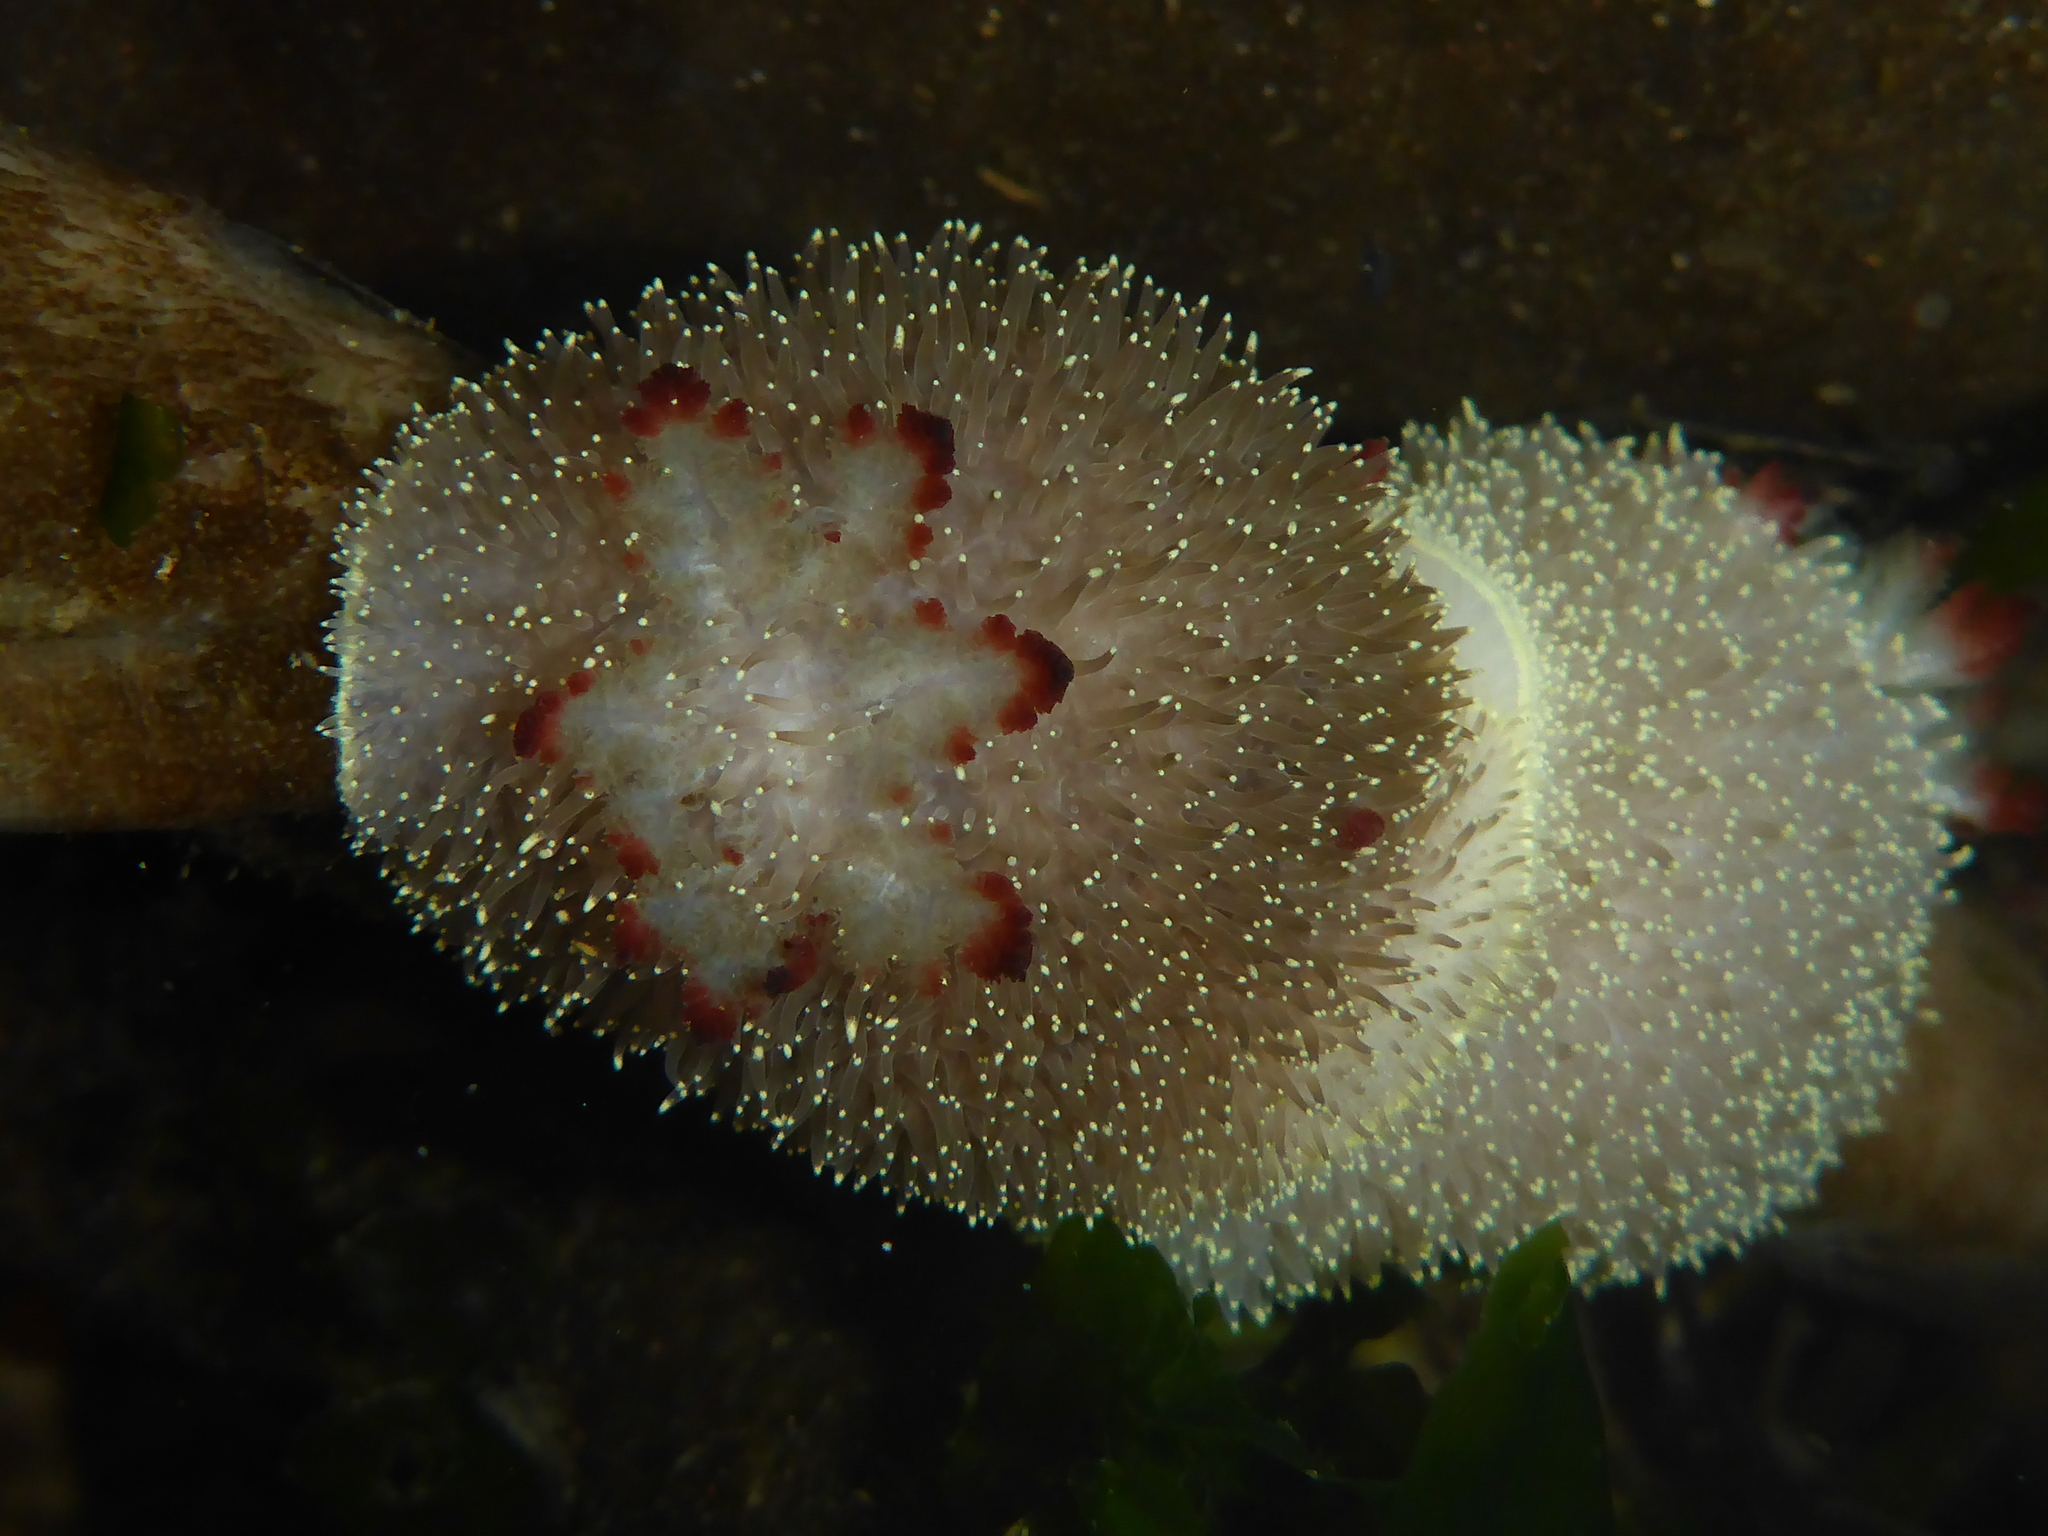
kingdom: Animalia
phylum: Mollusca
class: Gastropoda
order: Nudibranchia
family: Onchidorididae
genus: Acanthodoris
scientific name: Acanthodoris nanaimoensis
